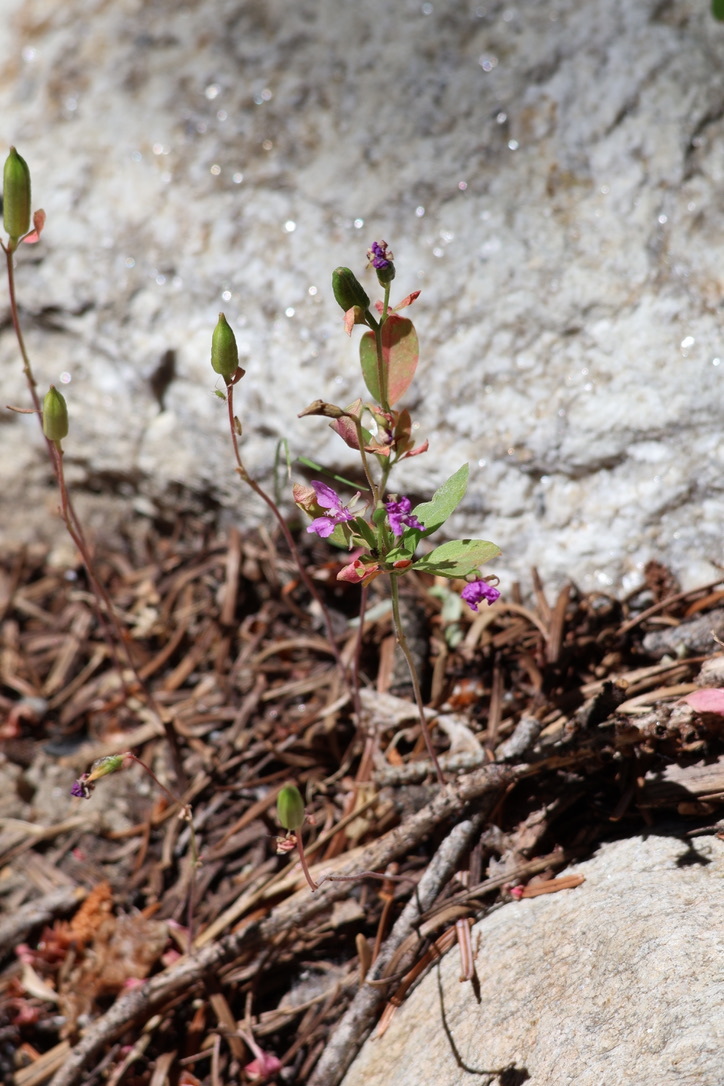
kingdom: Plantae
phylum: Tracheophyta
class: Magnoliopsida
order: Myrtales
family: Onagraceae
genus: Clarkia
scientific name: Clarkia rhomboidea
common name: Broadleaf clarkia
